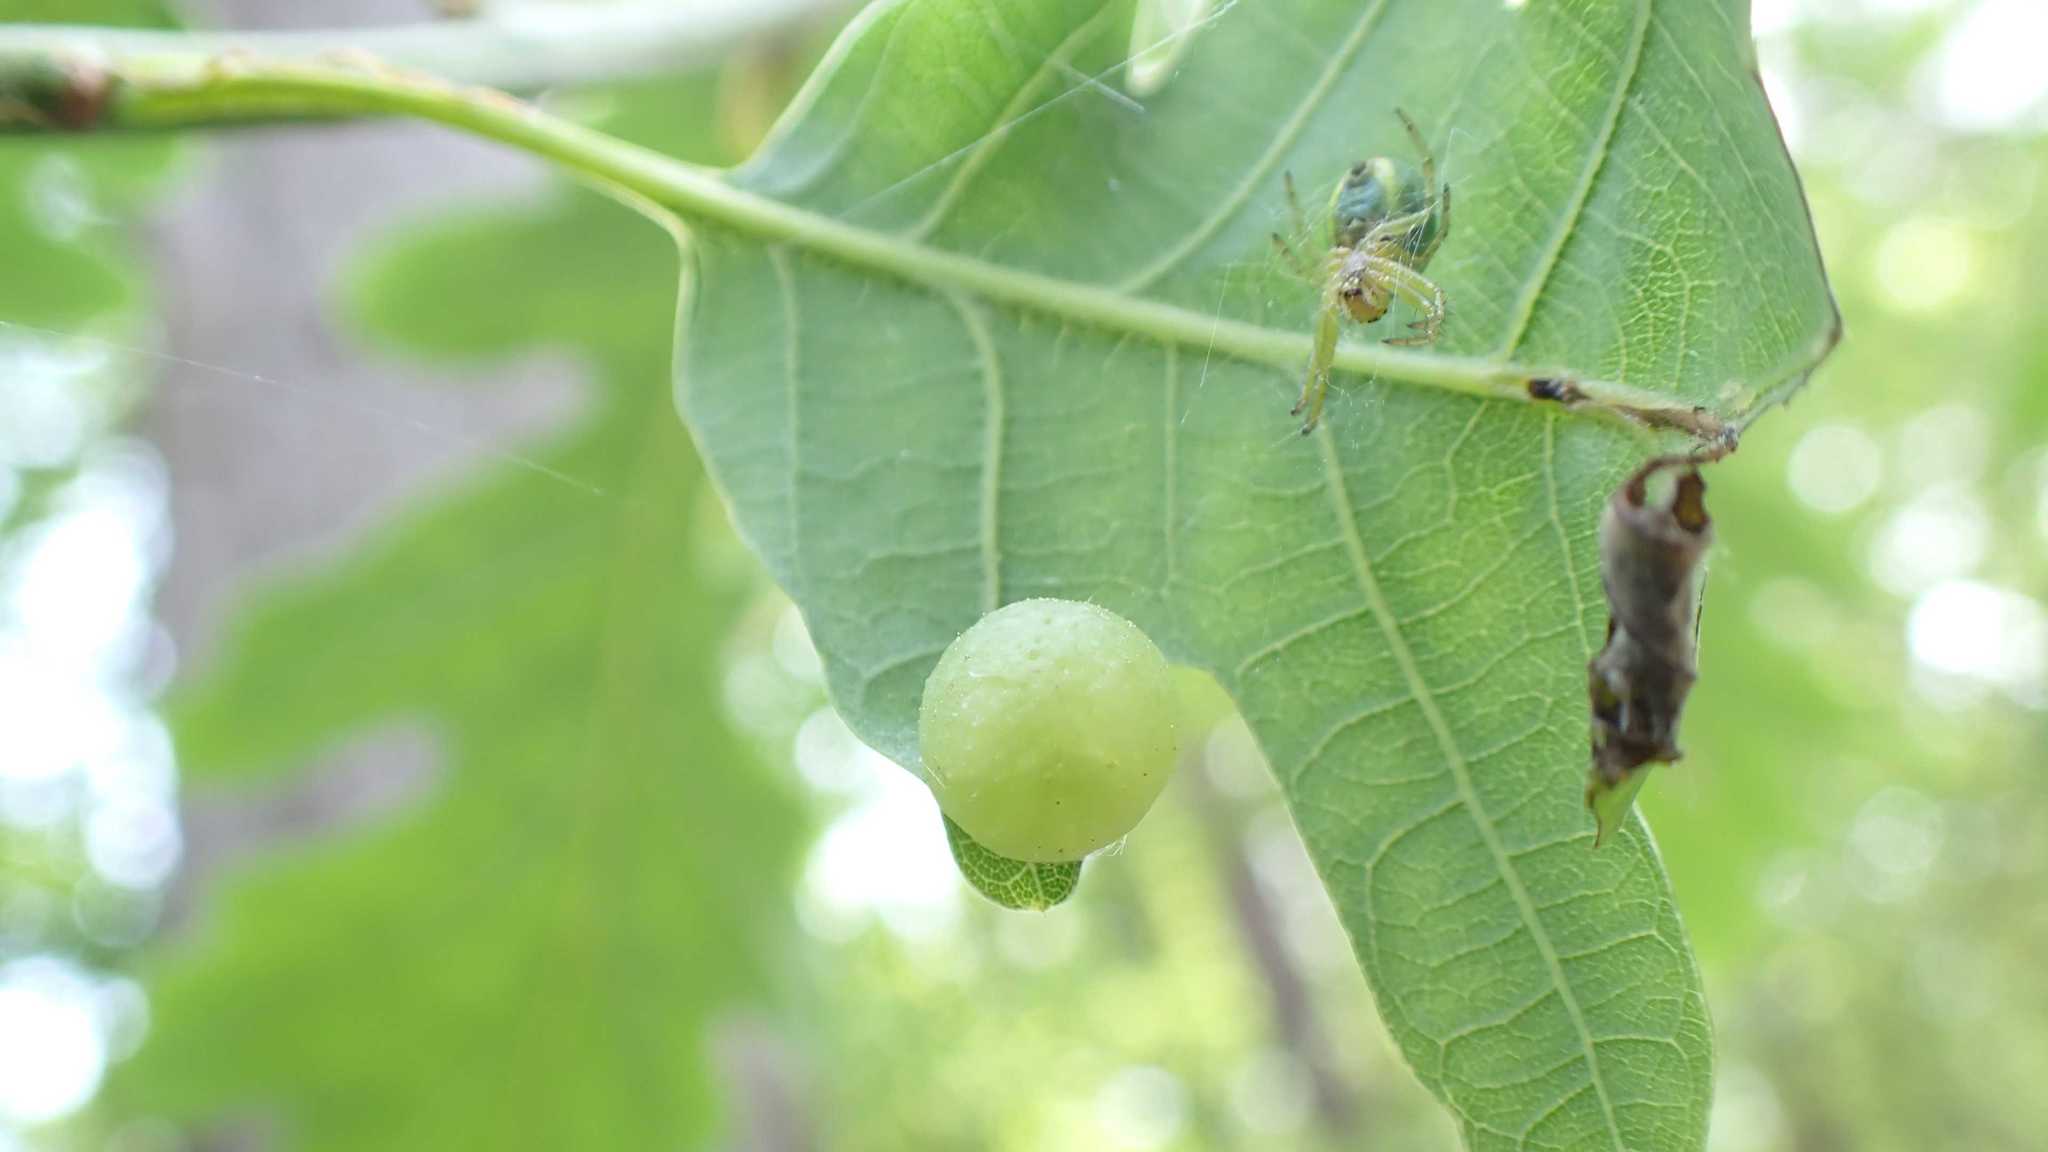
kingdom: Animalia
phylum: Arthropoda
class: Insecta
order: Hymenoptera
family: Cynipidae
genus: Neuroterus
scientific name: Neuroterus quercusbaccarum
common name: Common spangle gall
